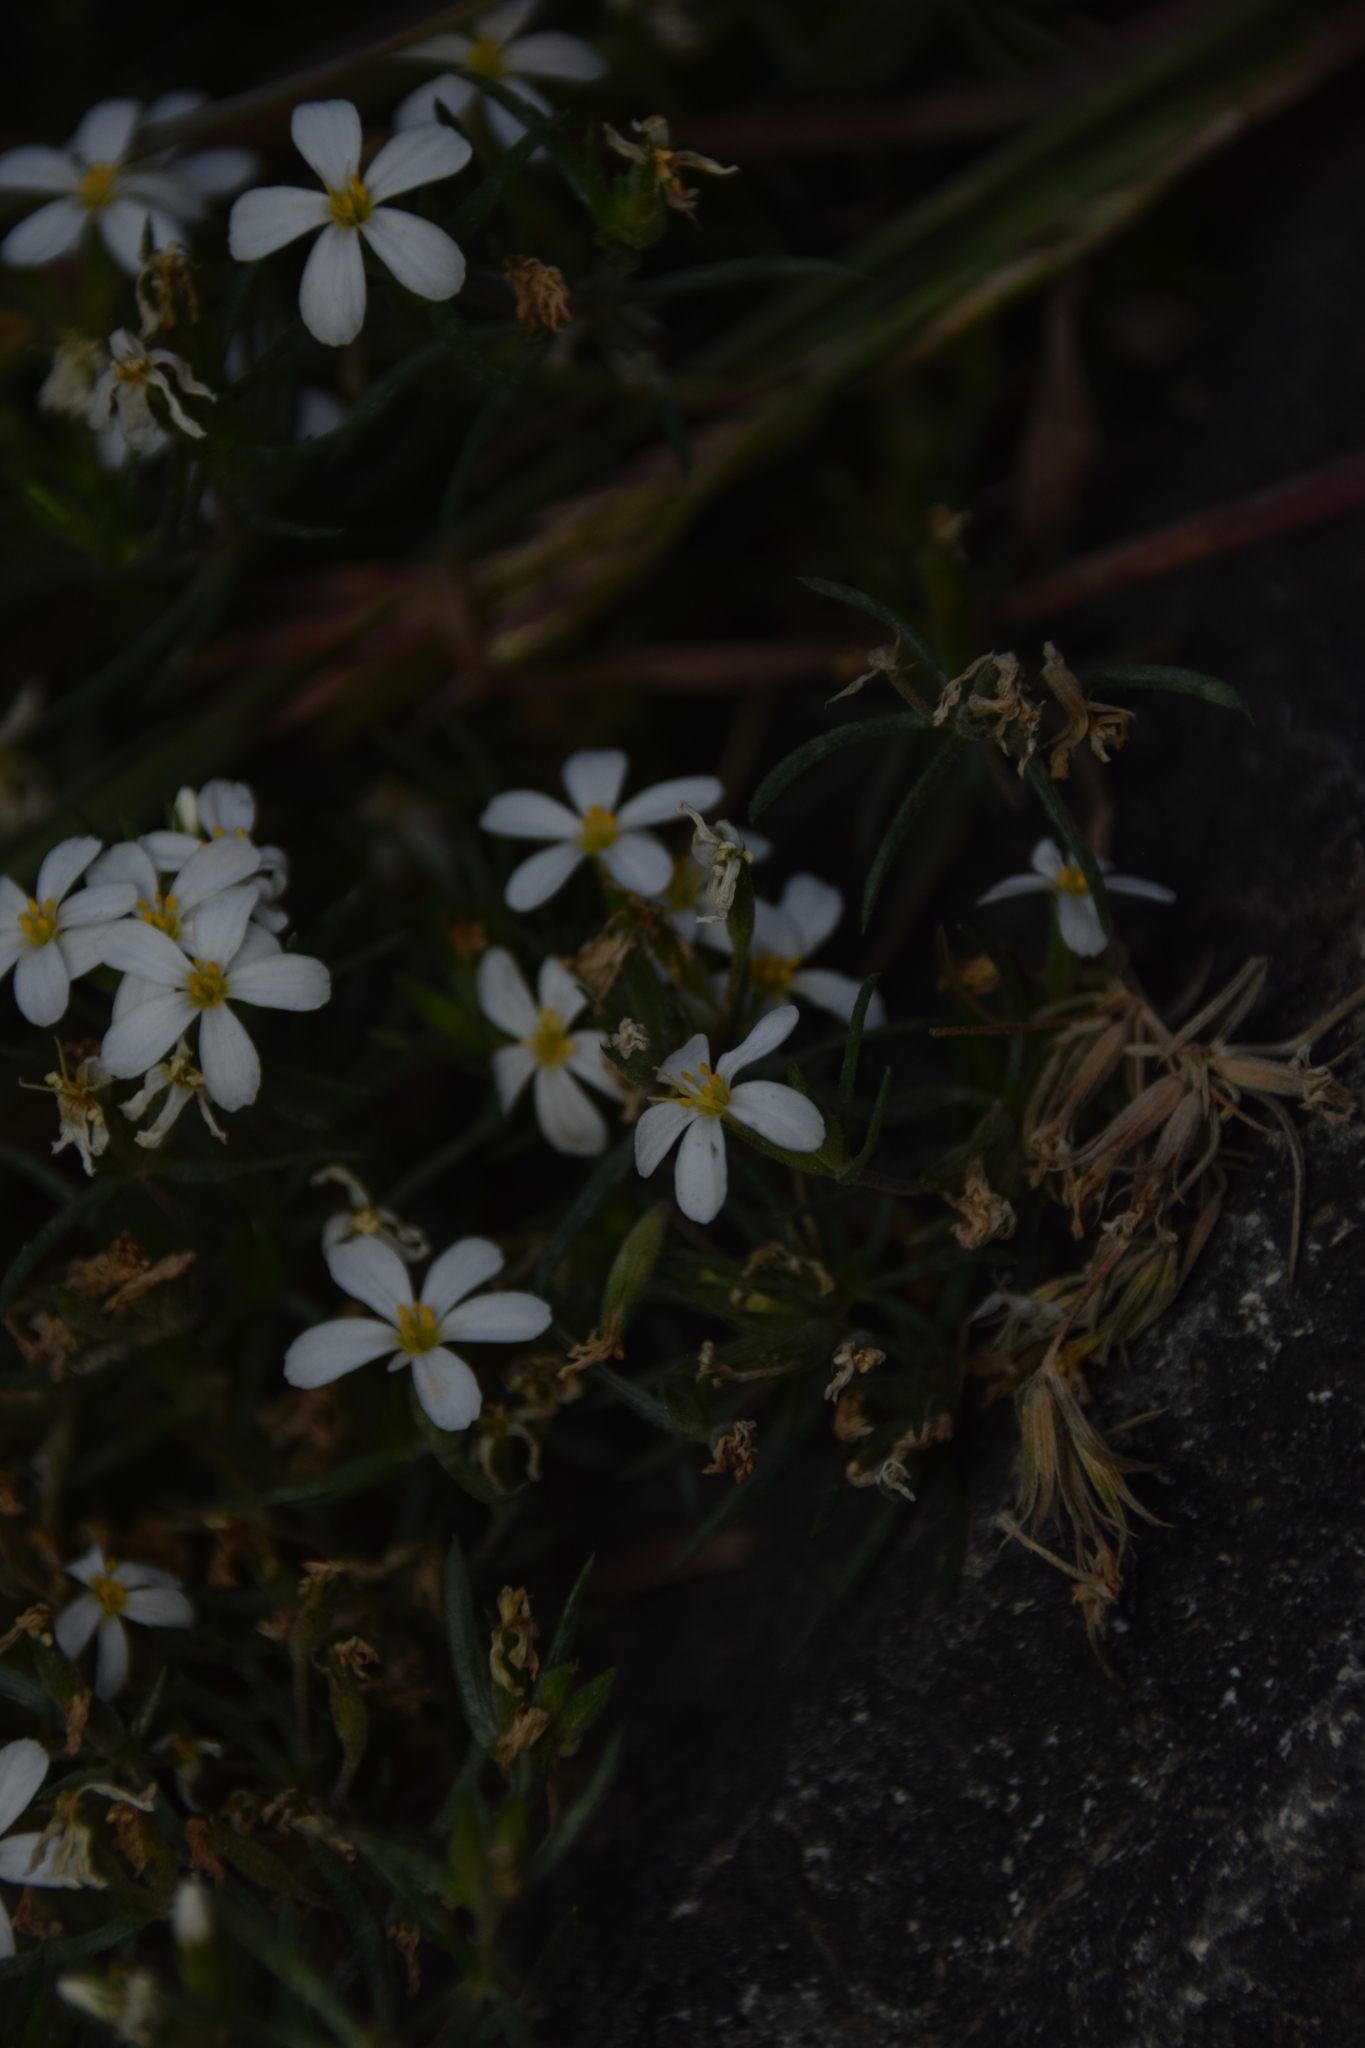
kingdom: Plantae
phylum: Tracheophyta
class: Magnoliopsida
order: Ericales
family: Polemoniaceae
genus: Leptosiphon
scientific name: Leptosiphon nuttallii
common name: Nuttall's linanthus
